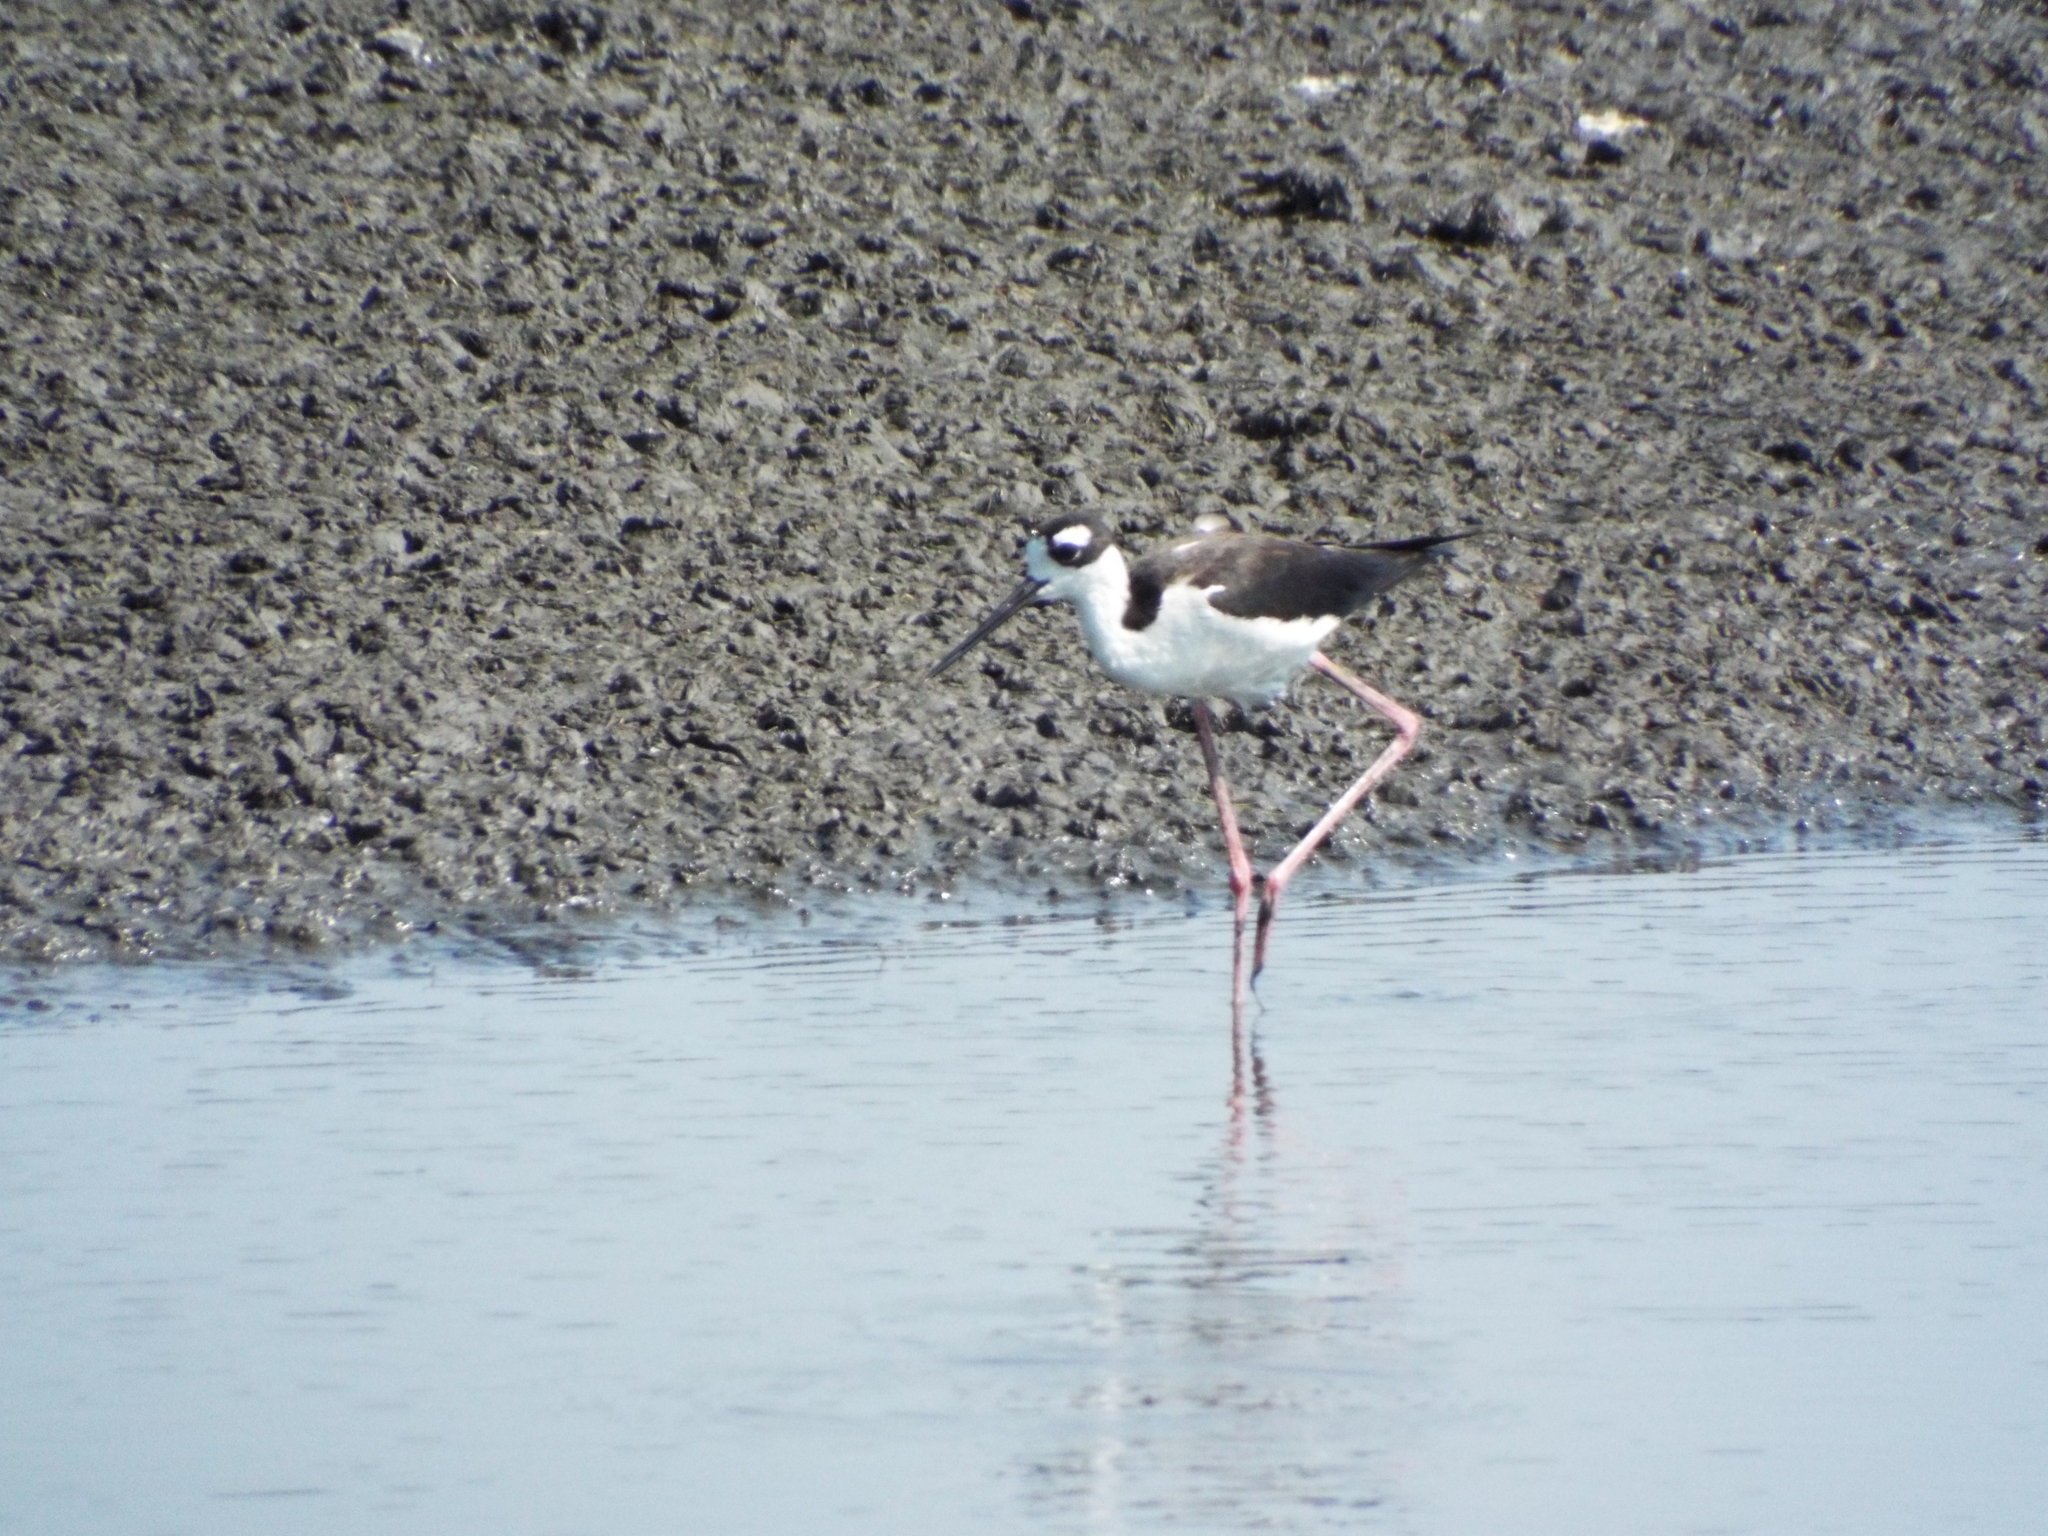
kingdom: Animalia
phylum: Chordata
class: Aves
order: Charadriiformes
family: Recurvirostridae
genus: Himantopus
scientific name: Himantopus mexicanus
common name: Black-necked stilt
